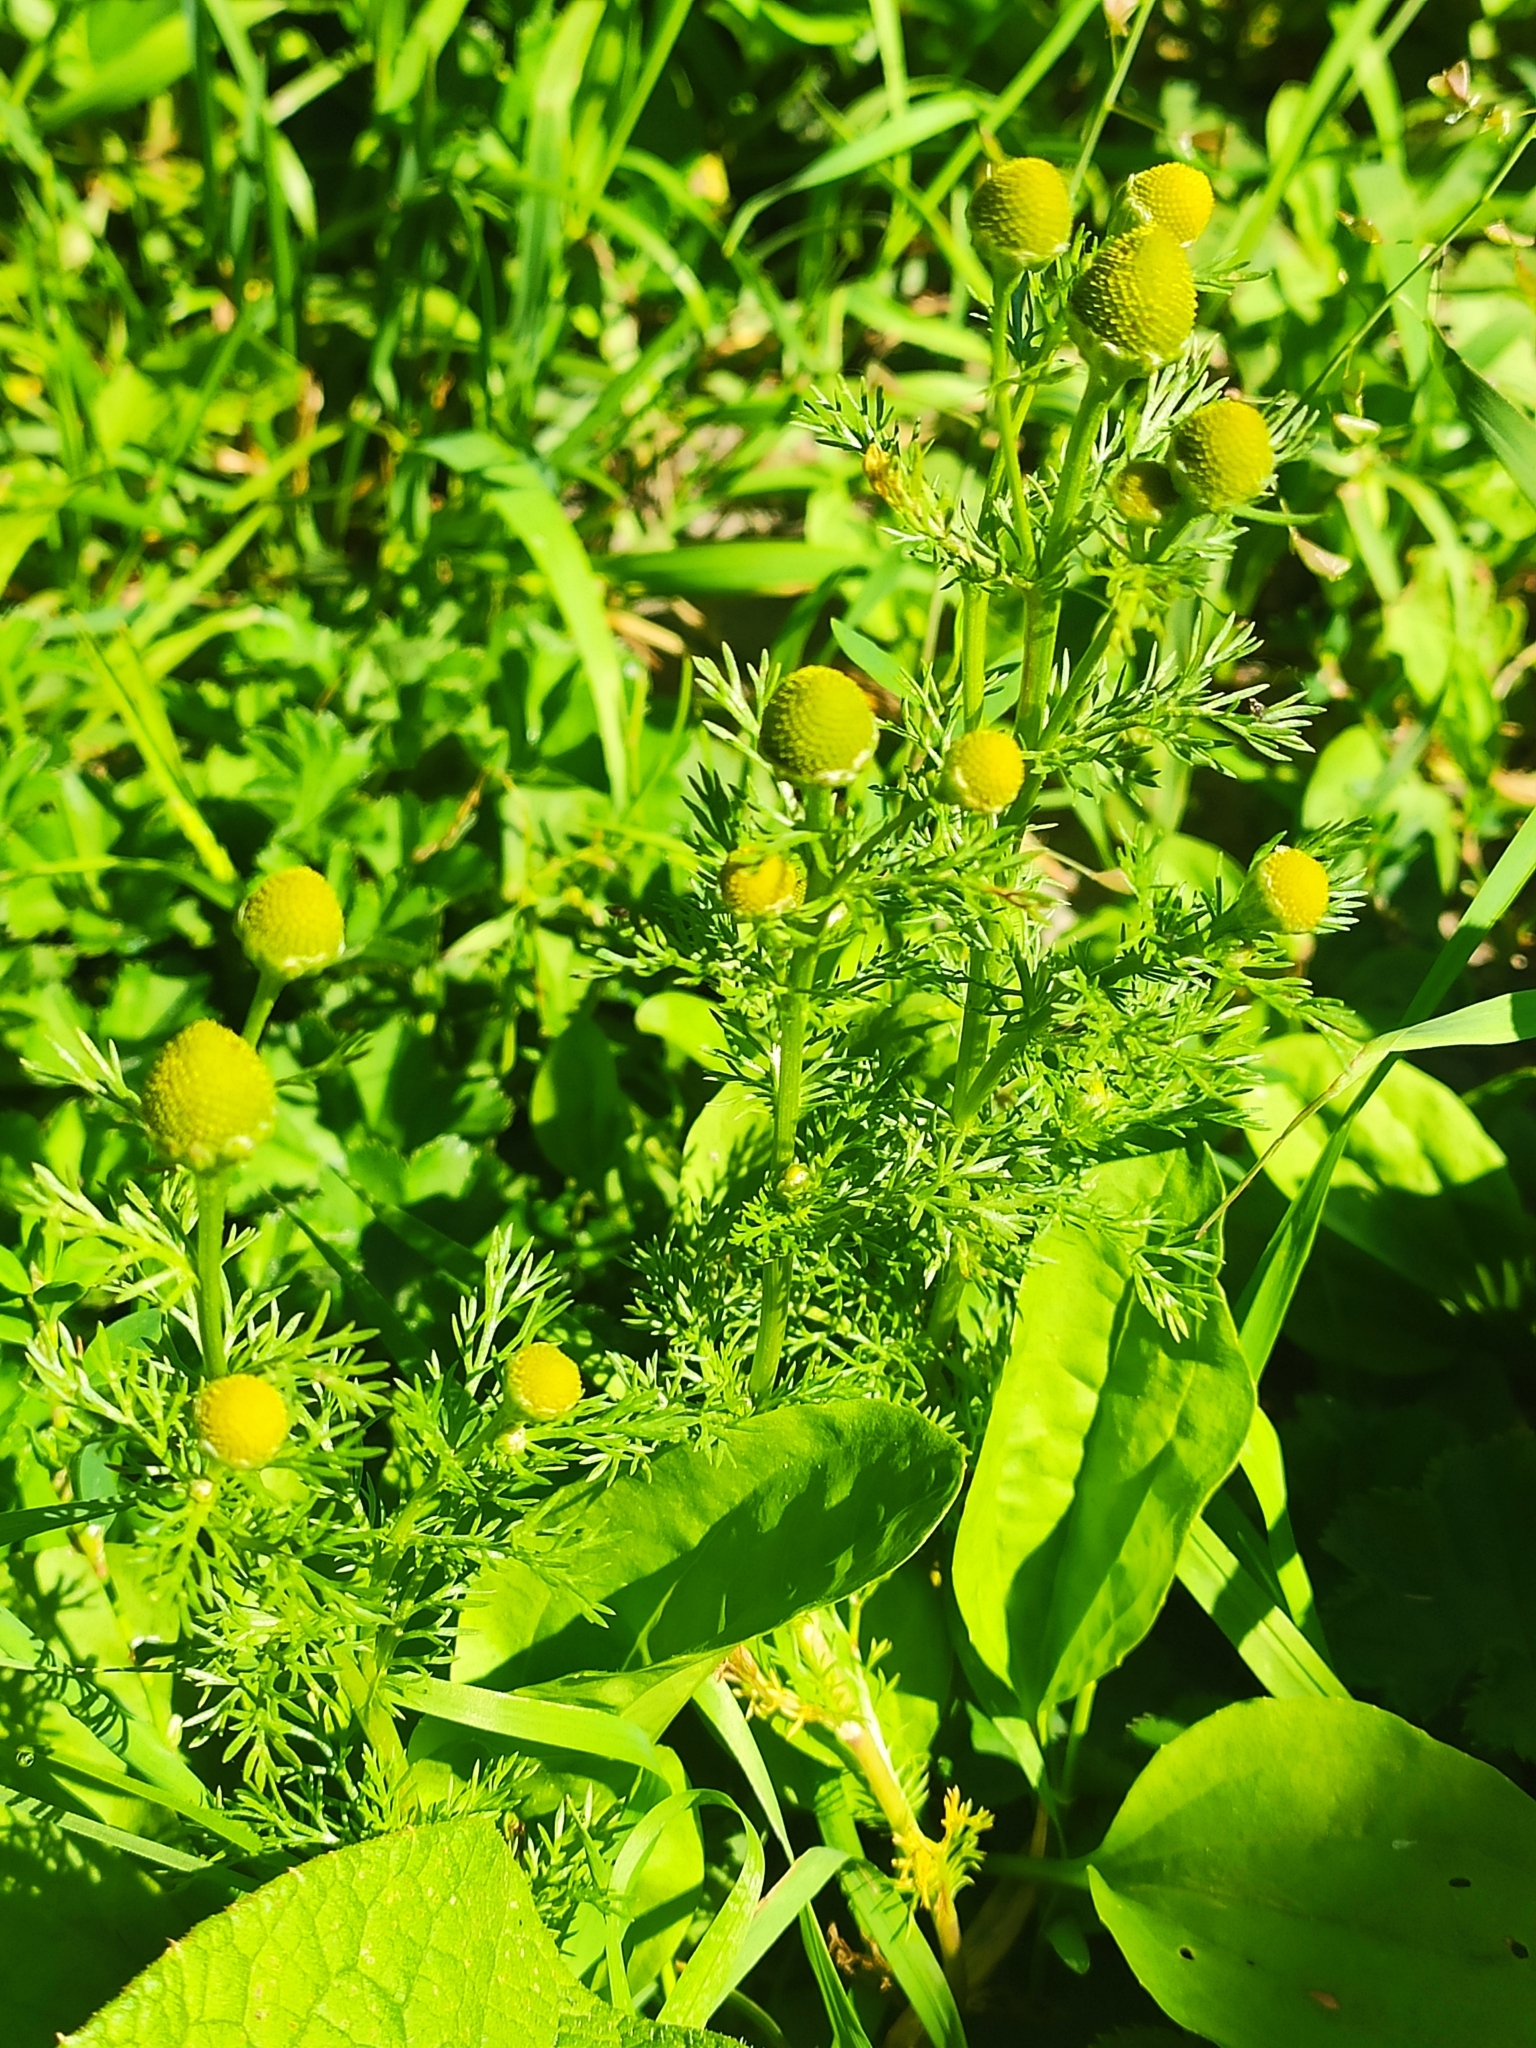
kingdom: Plantae
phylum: Tracheophyta
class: Magnoliopsida
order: Asterales
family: Asteraceae
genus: Matricaria
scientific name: Matricaria discoidea
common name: Disc mayweed
